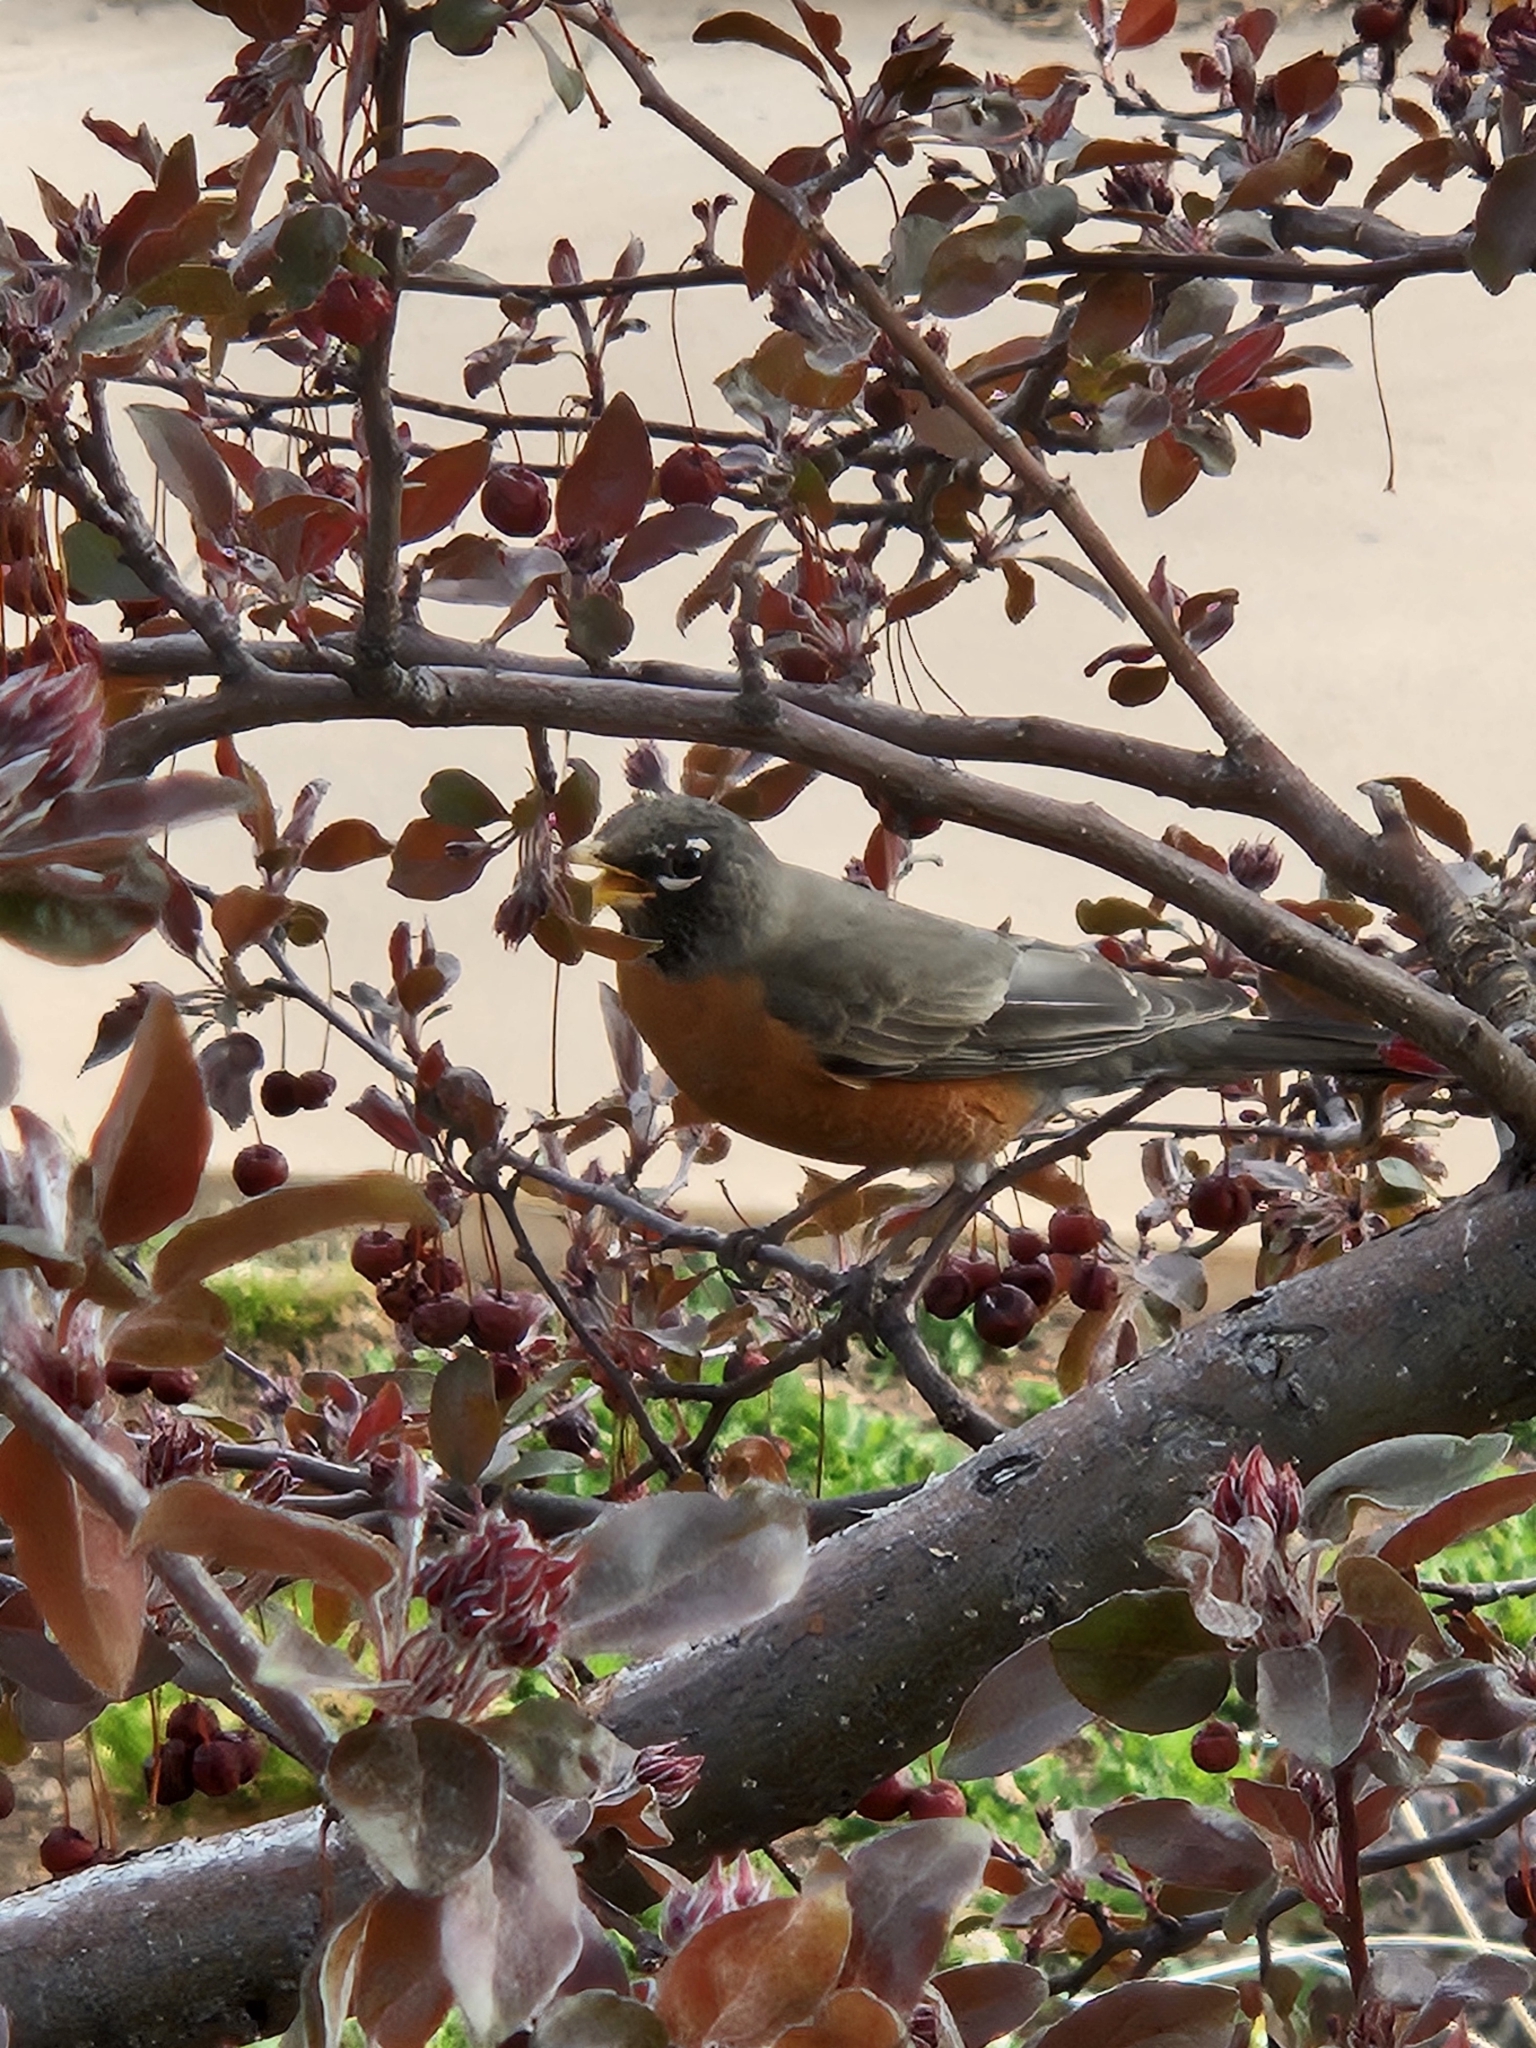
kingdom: Animalia
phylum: Chordata
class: Aves
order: Passeriformes
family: Turdidae
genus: Turdus
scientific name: Turdus migratorius
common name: American robin
